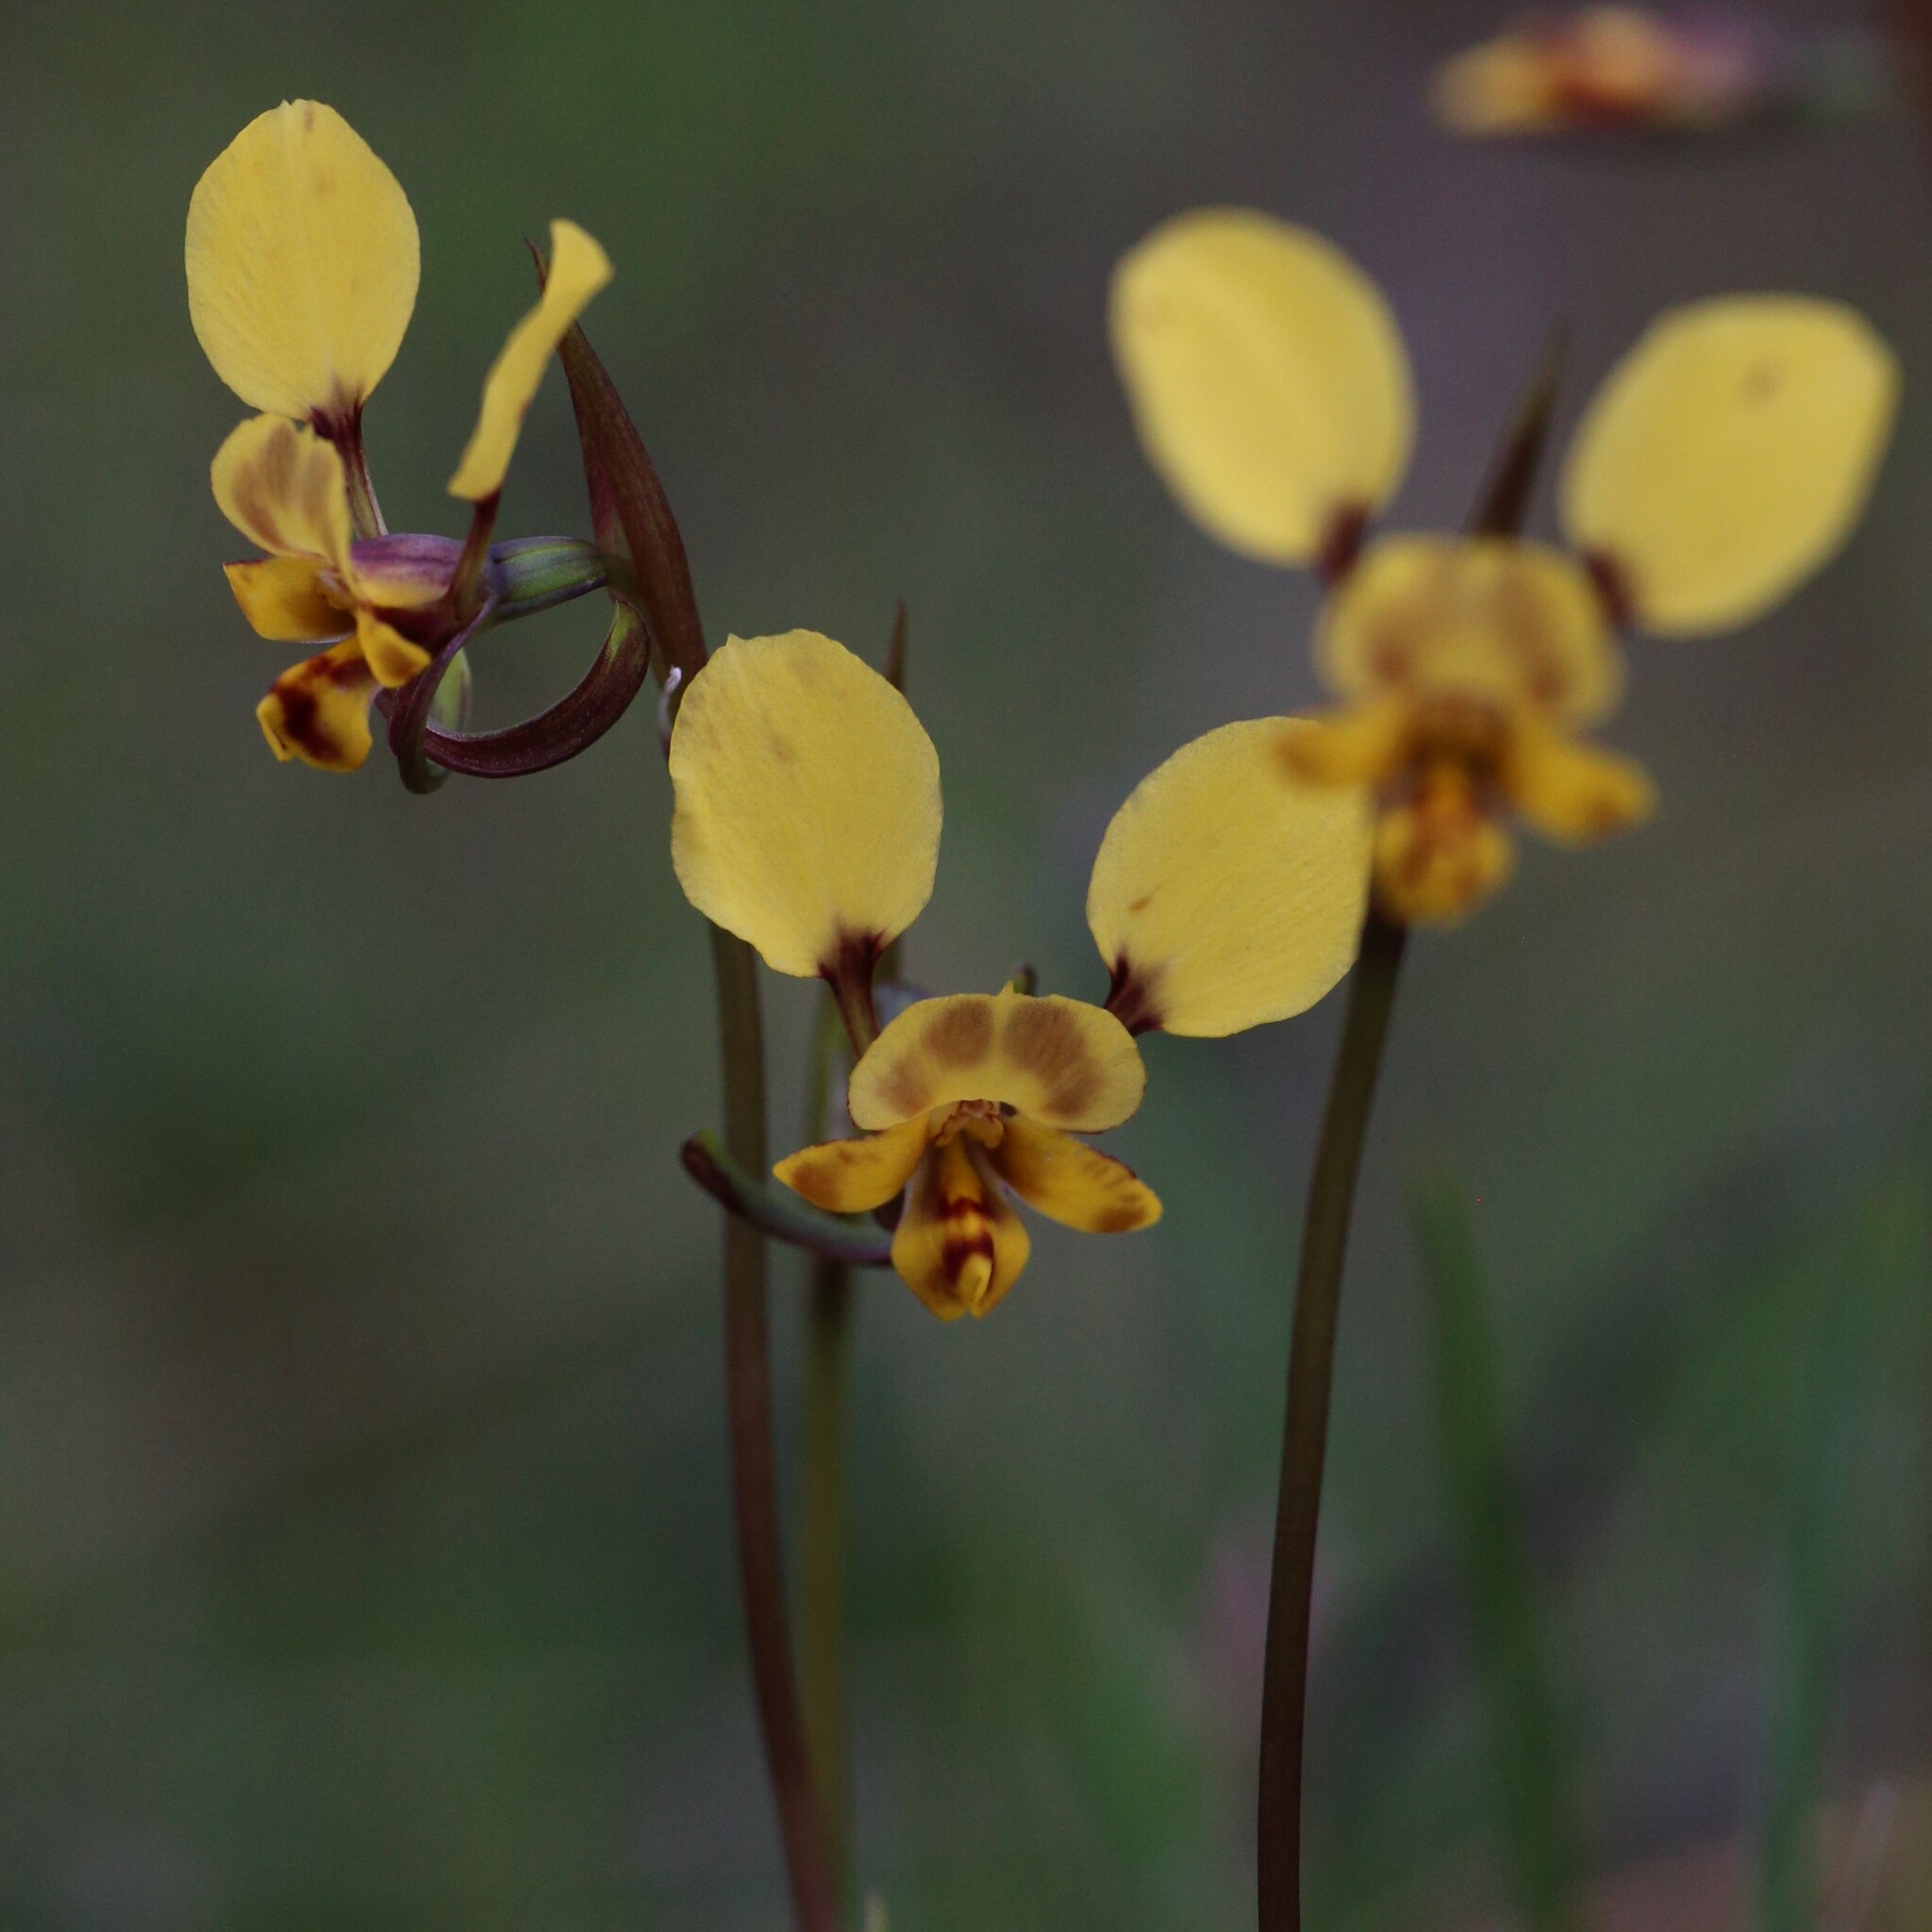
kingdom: Plantae
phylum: Tracheophyta
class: Liliopsida
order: Asparagales
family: Orchidaceae
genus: Diuris
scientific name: Diuris pallescens
